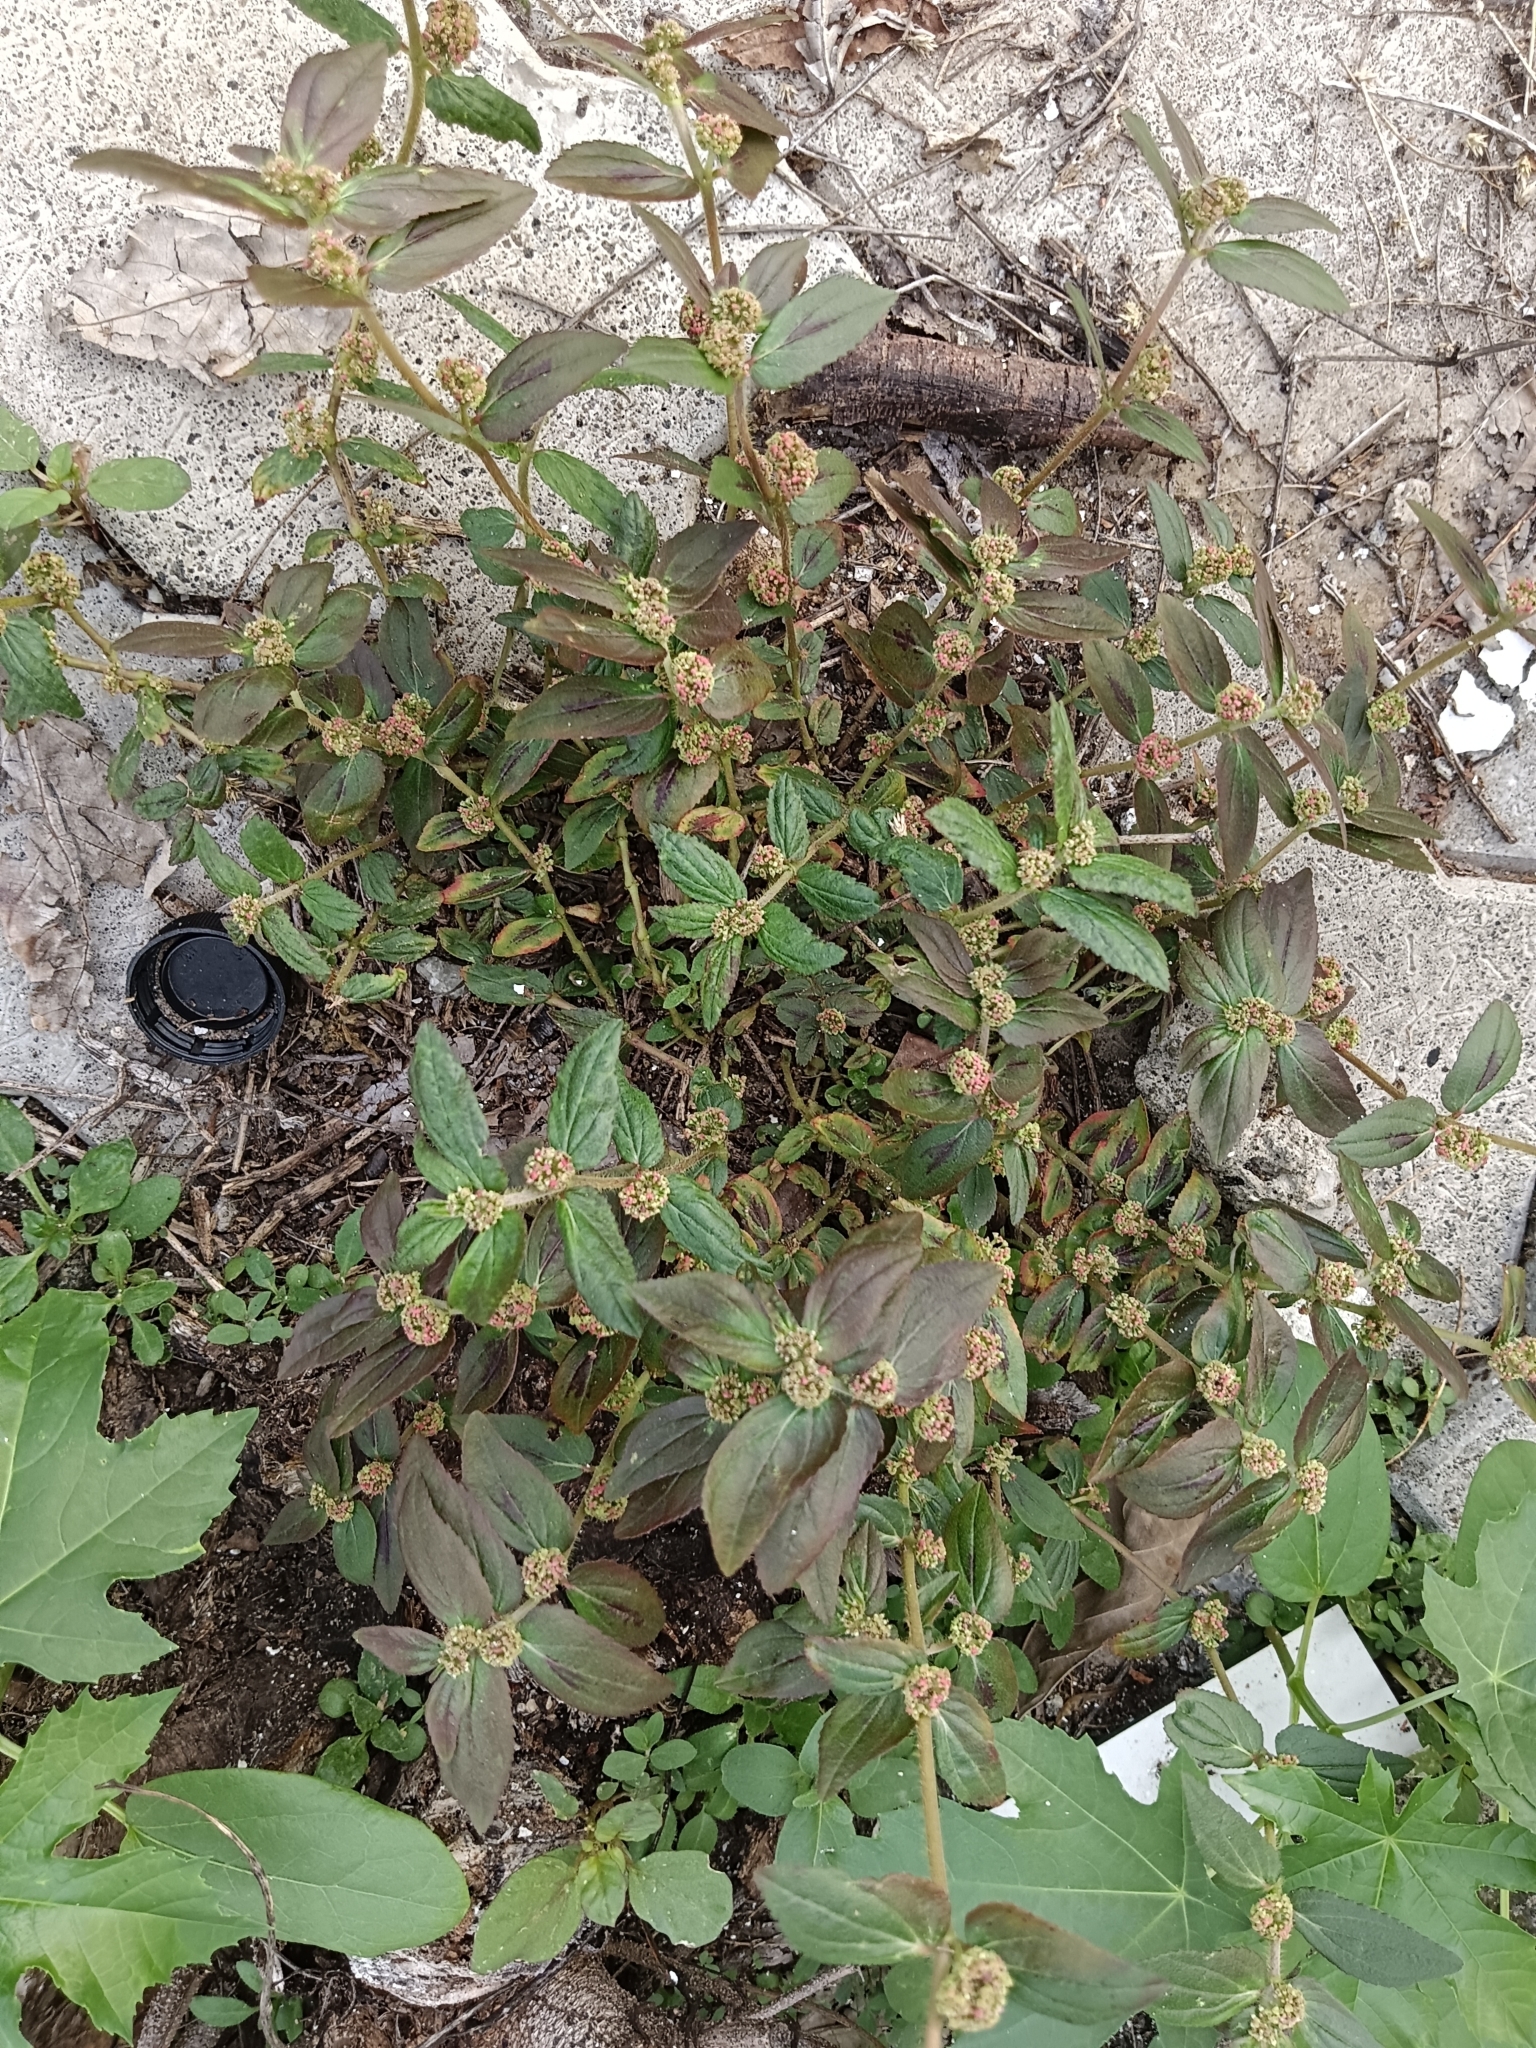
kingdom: Plantae
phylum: Tracheophyta
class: Magnoliopsida
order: Malpighiales
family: Euphorbiaceae
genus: Euphorbia
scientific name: Euphorbia hirta
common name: Pillpod sandmat
